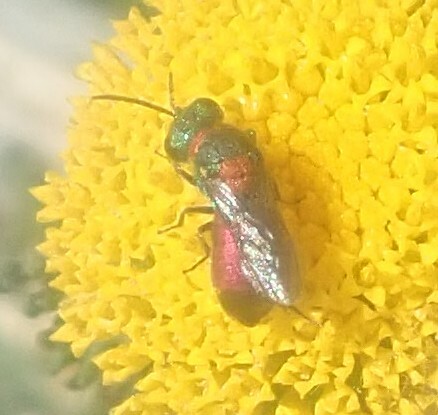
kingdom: Animalia
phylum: Arthropoda
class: Insecta
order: Hymenoptera
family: Chrysididae
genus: Pseudochrysis
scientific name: Pseudochrysis uniformis
